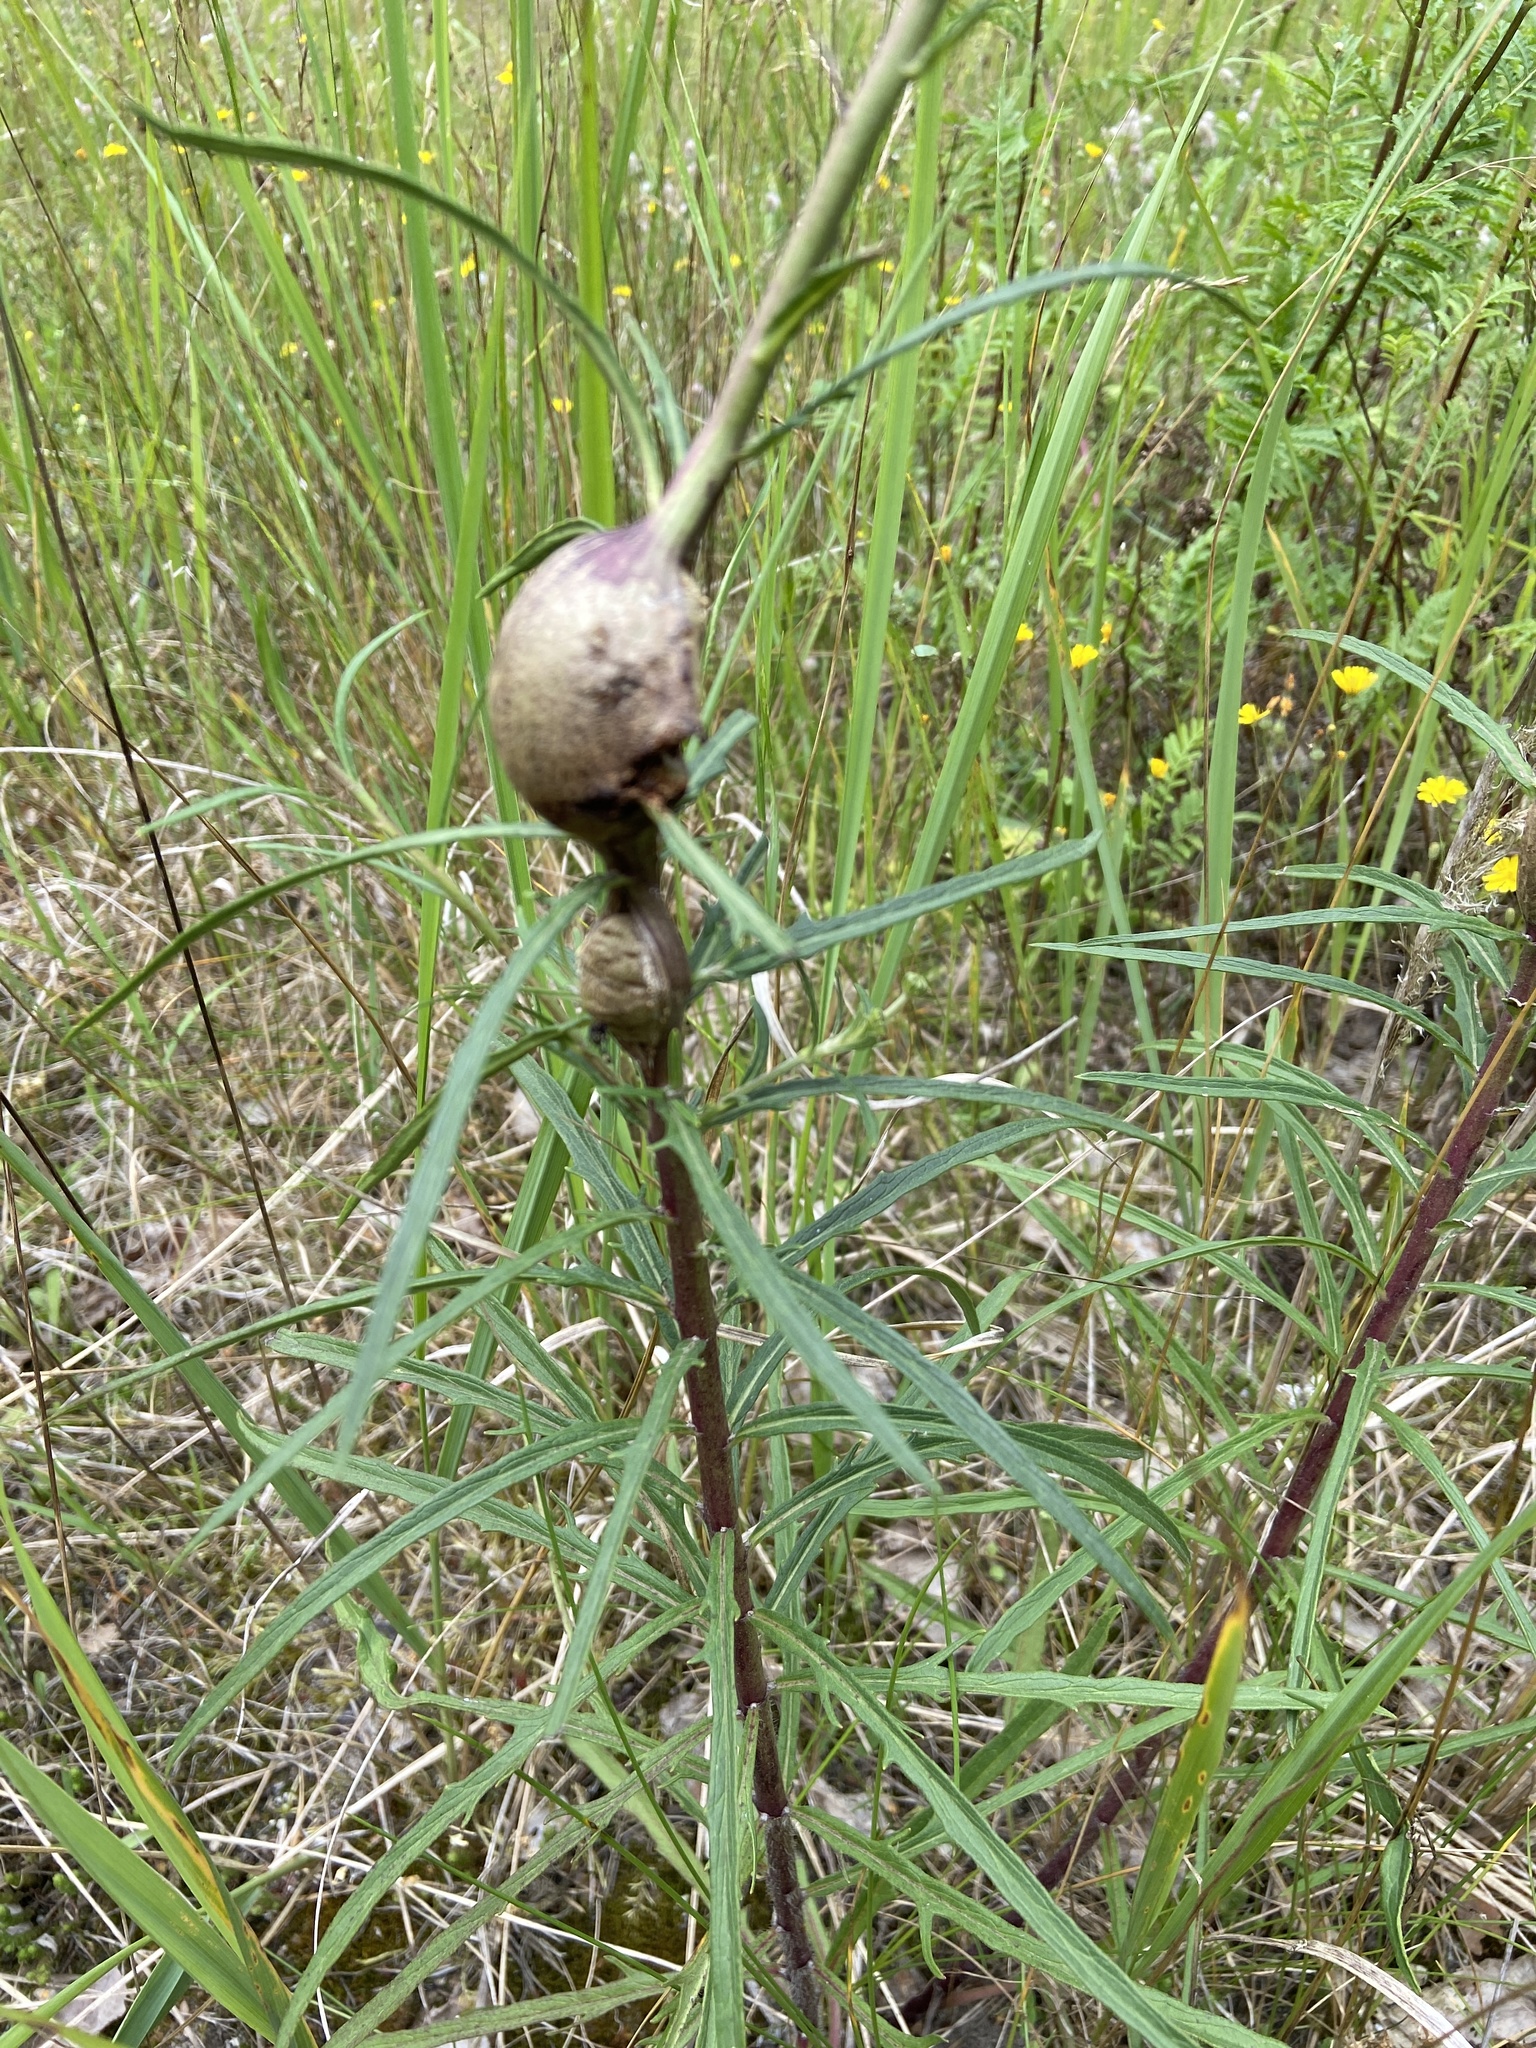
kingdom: Animalia
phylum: Arthropoda
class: Insecta
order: Diptera
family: Tephritidae
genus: Urophora
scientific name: Urophora cardui
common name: Fruit fly
